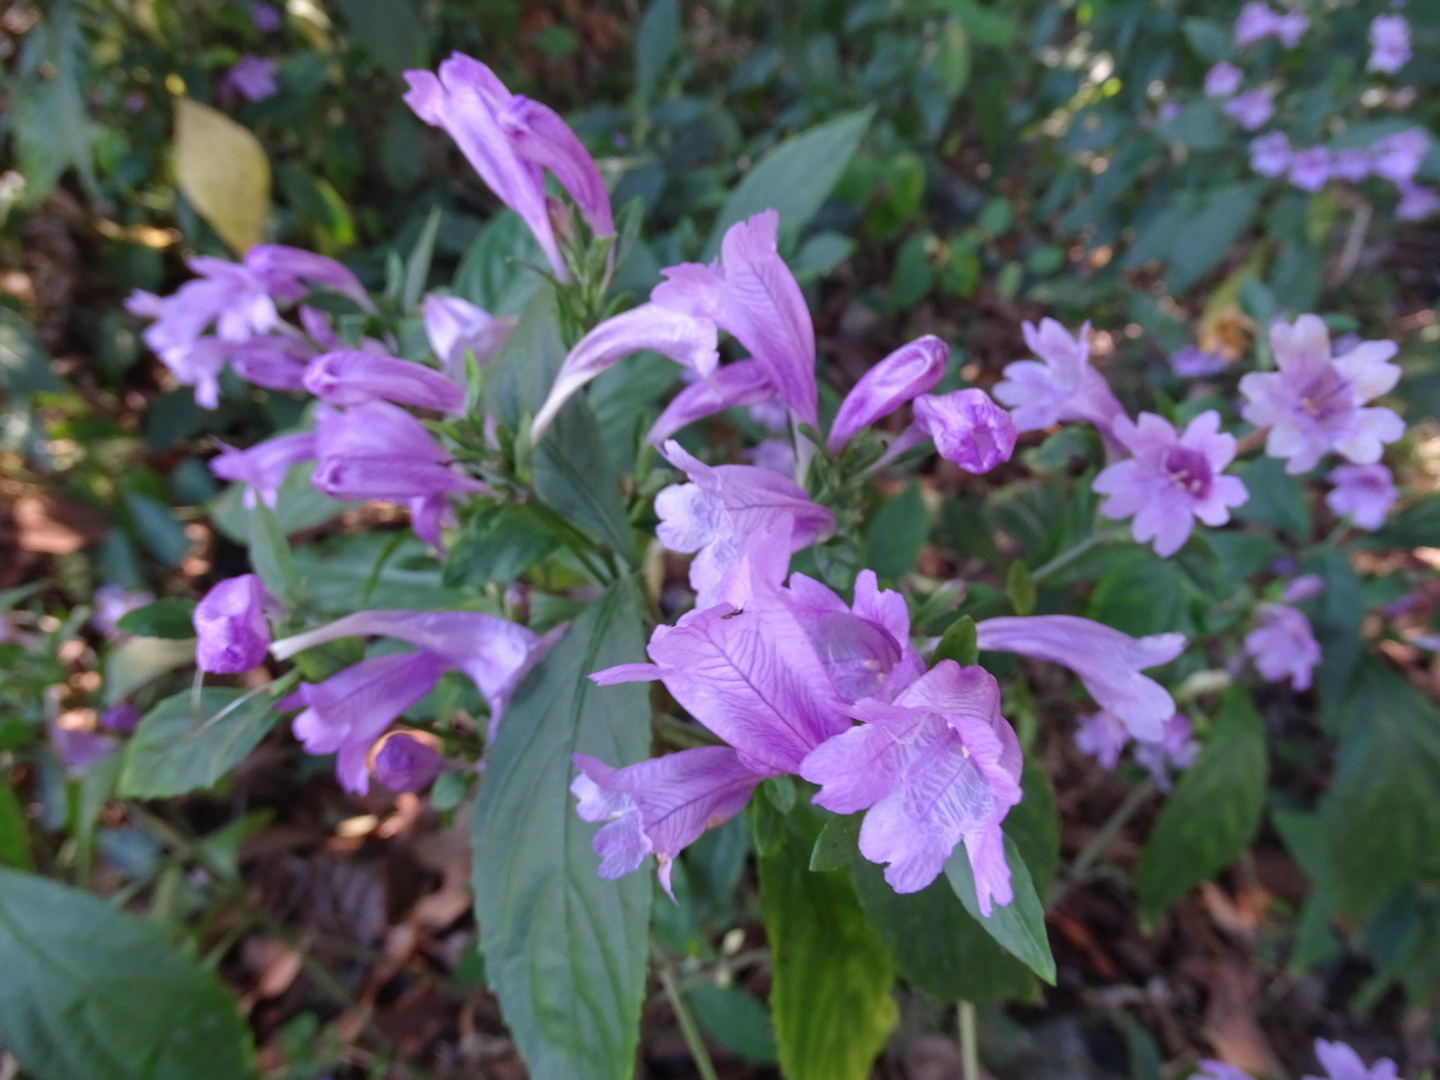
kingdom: Plantae
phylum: Tracheophyta
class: Magnoliopsida
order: Lamiales
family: Acanthaceae
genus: Strobilanthes
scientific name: Strobilanthes cusia
